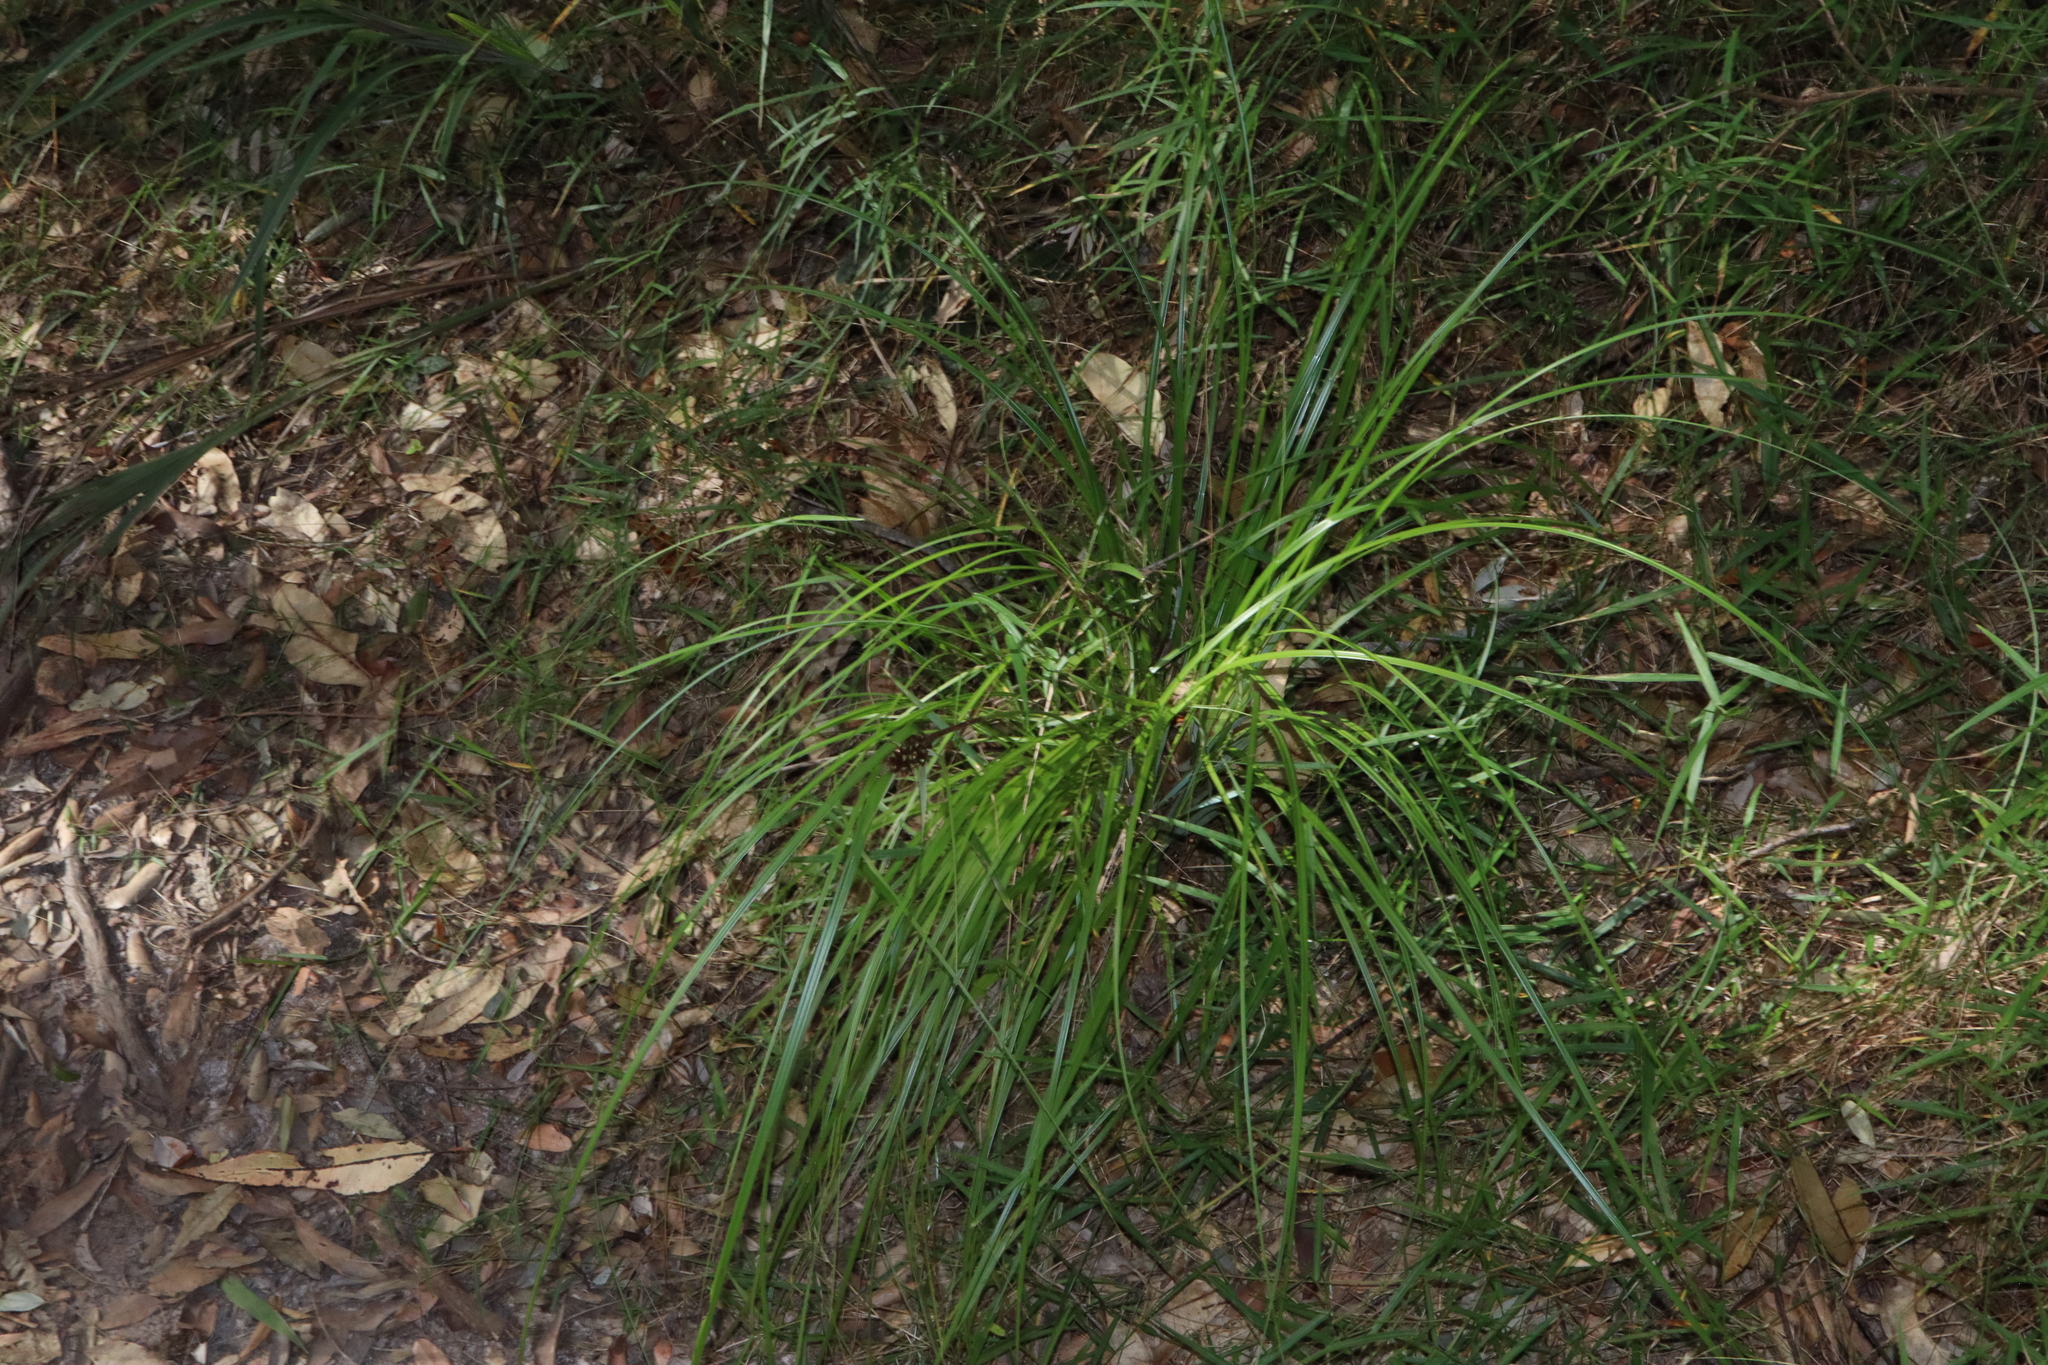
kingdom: Plantae
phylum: Tracheophyta
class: Liliopsida
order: Poales
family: Cyperaceae
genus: Gahnia
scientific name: Gahnia aspera
